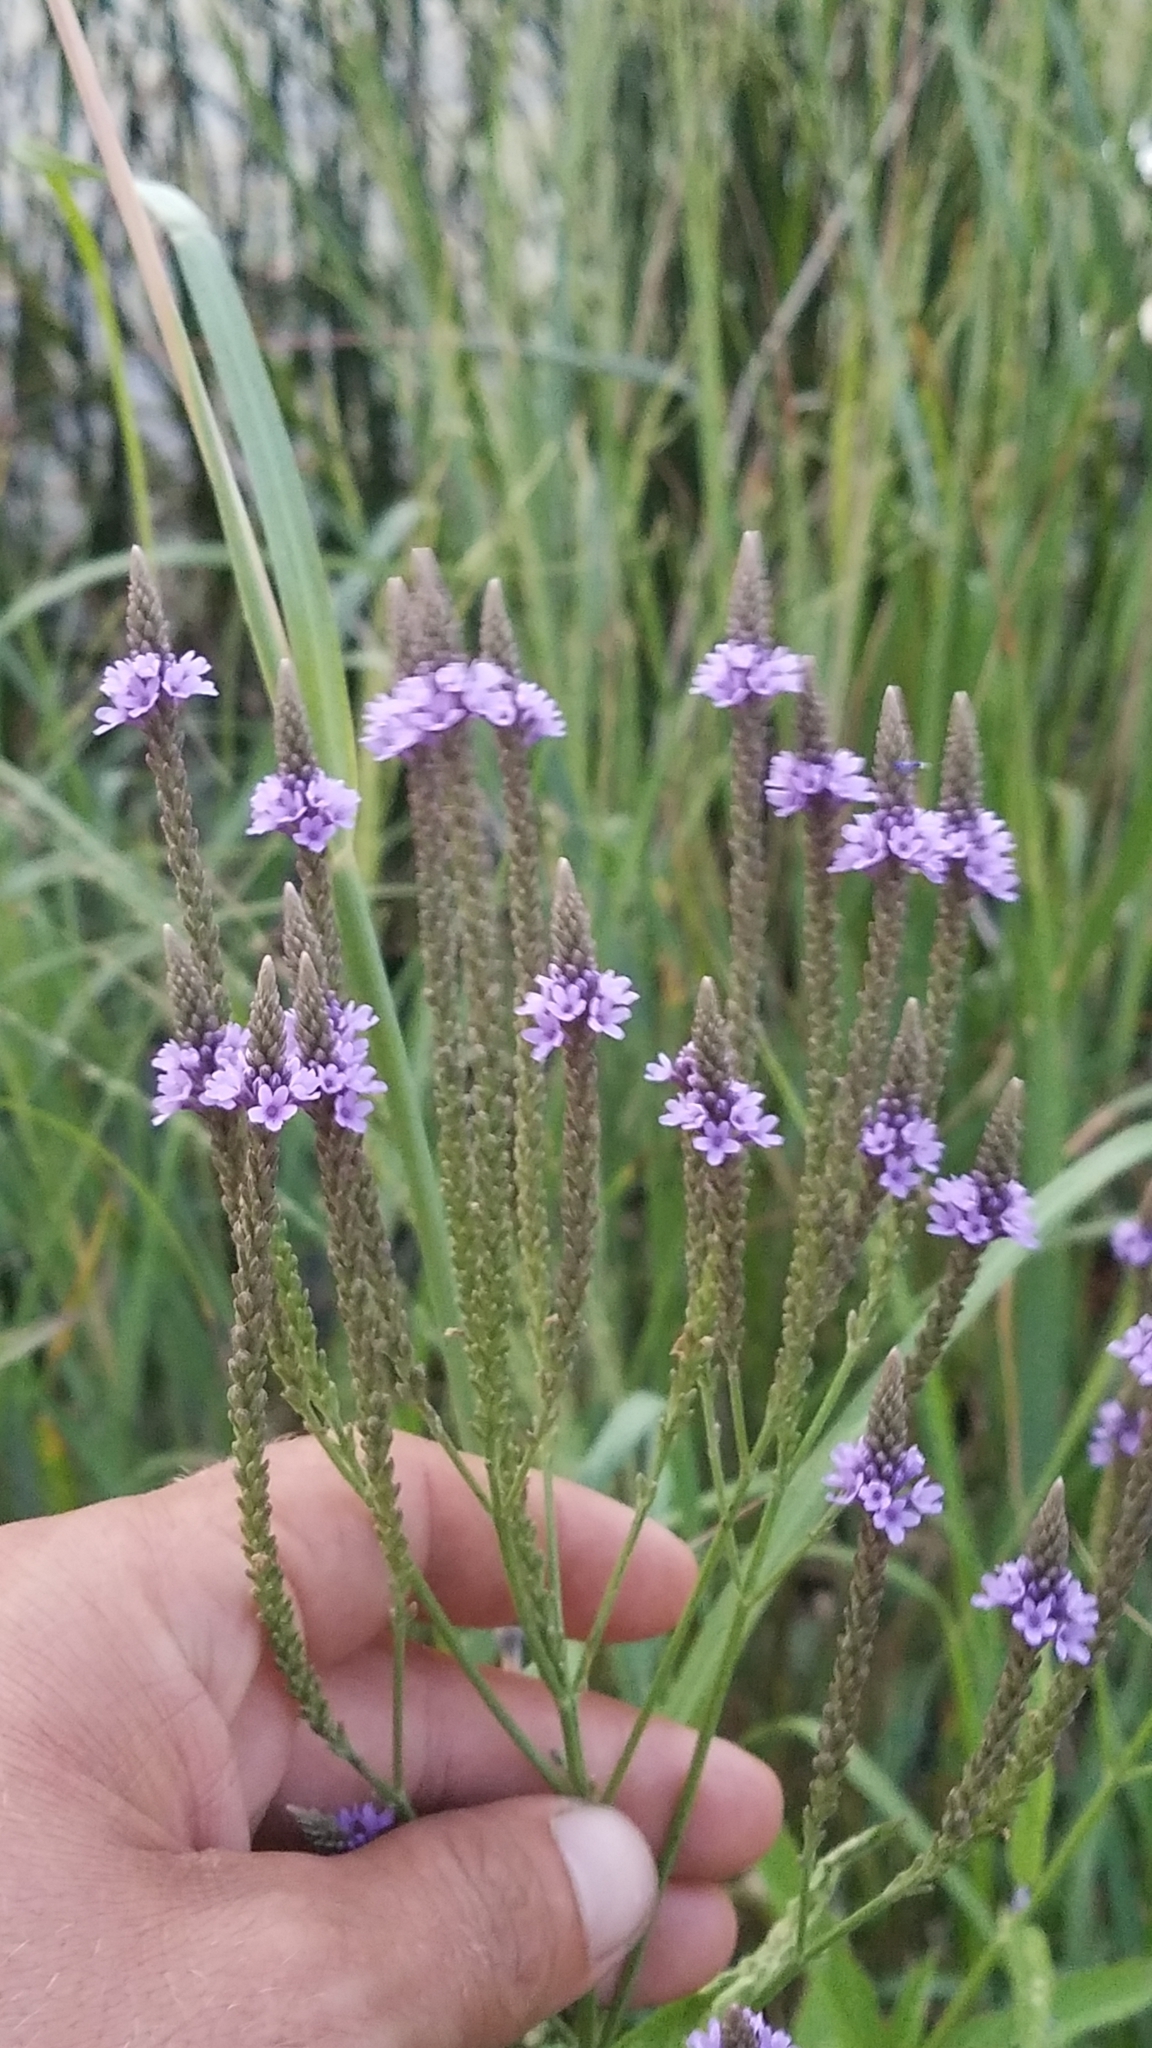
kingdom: Plantae
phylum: Tracheophyta
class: Magnoliopsida
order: Lamiales
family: Verbenaceae
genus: Verbena
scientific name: Verbena hastata
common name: American blue vervain
